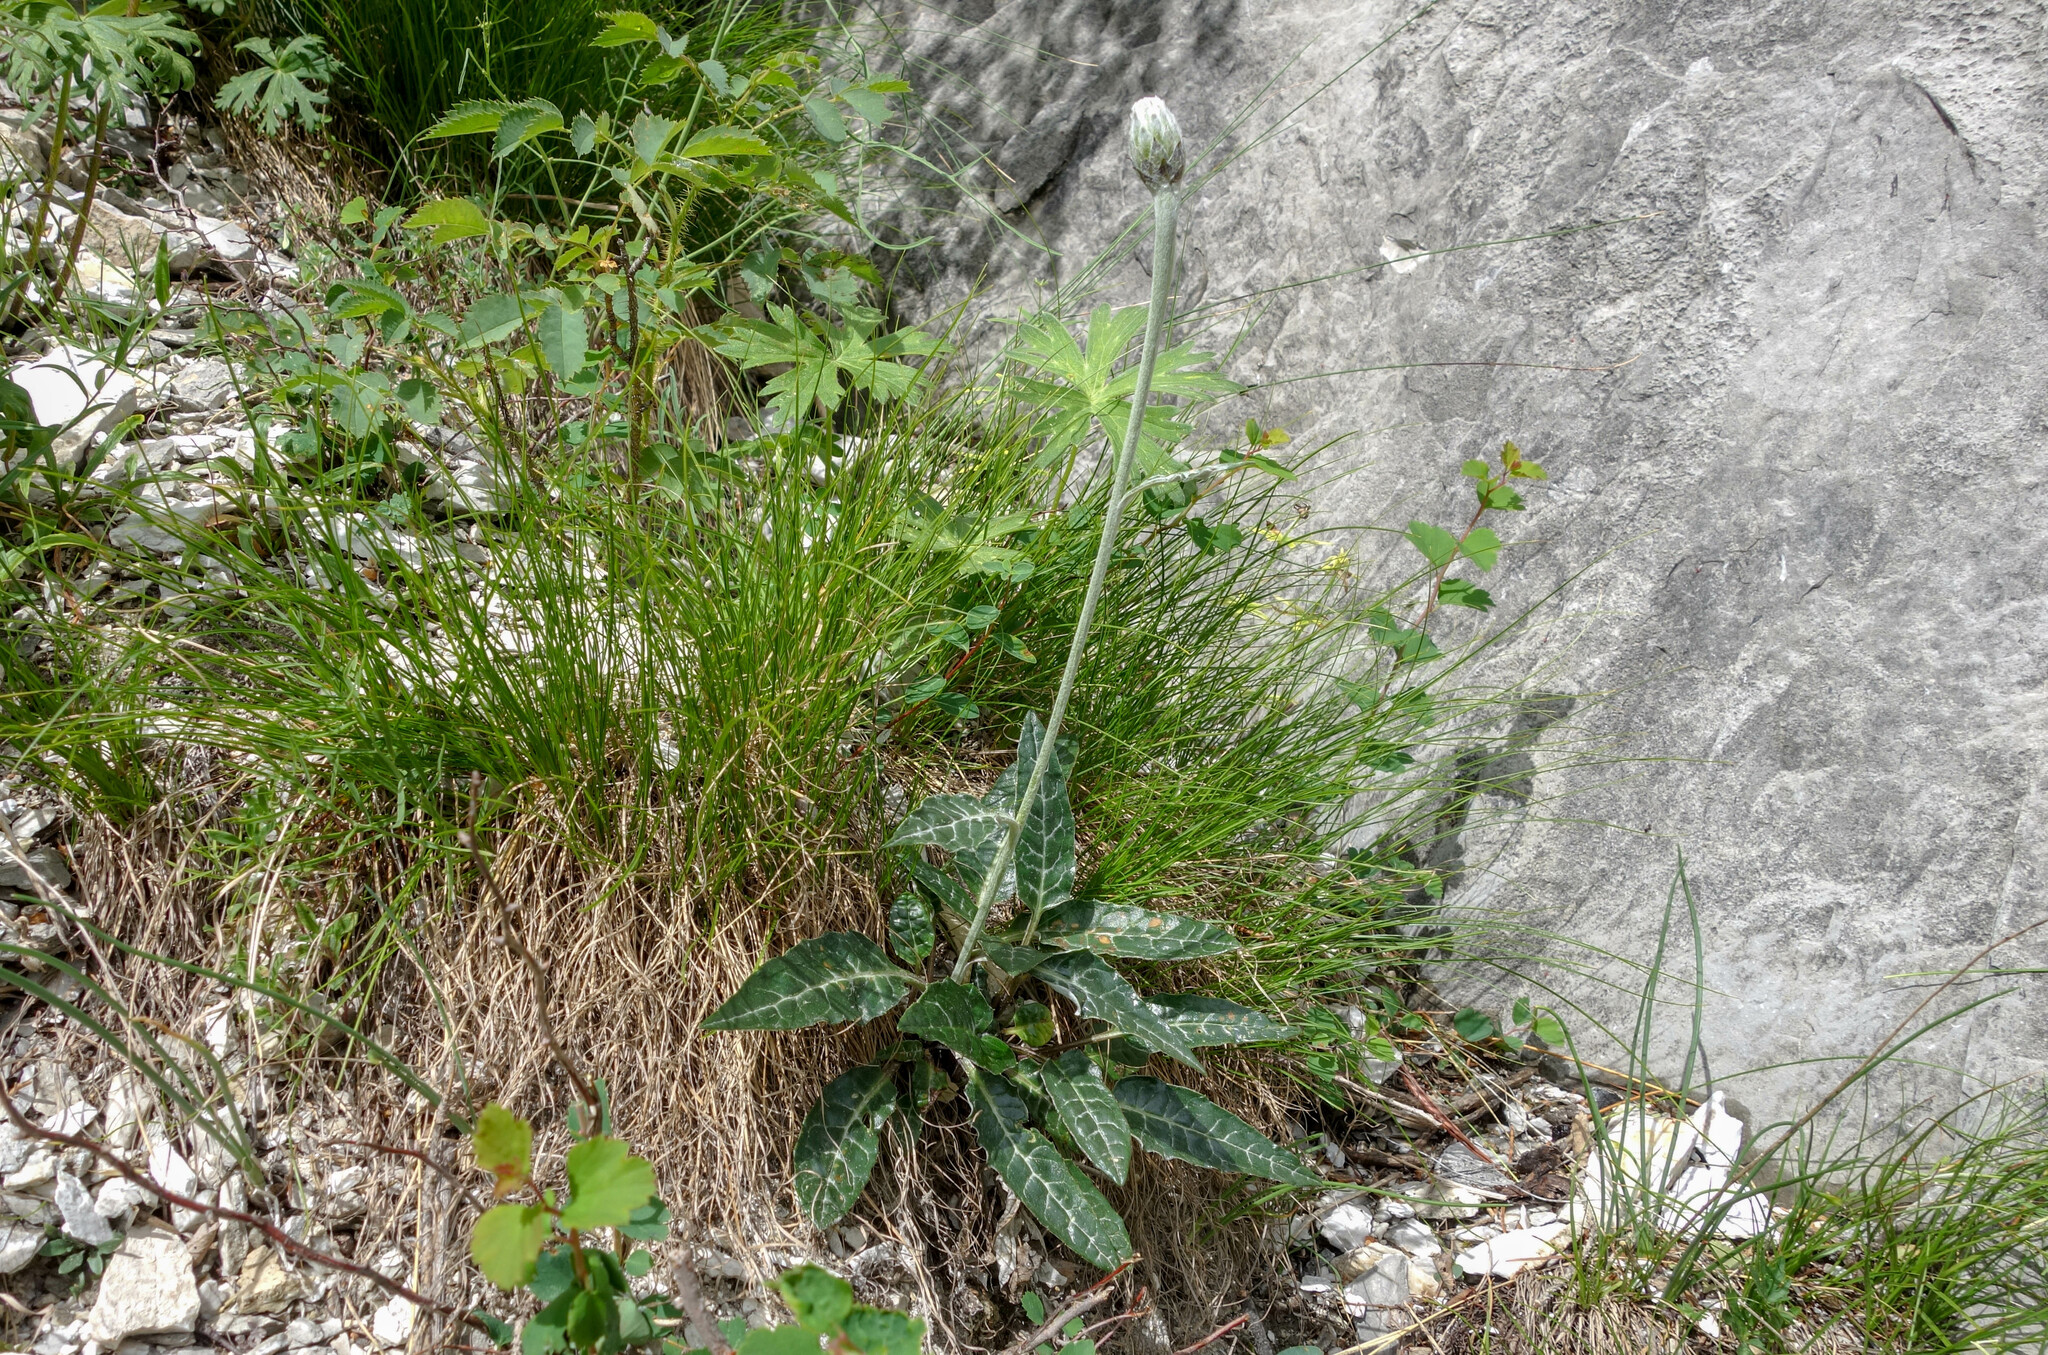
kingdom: Plantae
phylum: Tracheophyta
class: Magnoliopsida
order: Asterales
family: Asteraceae
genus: Saussurea
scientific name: Saussurea jadrincevii
